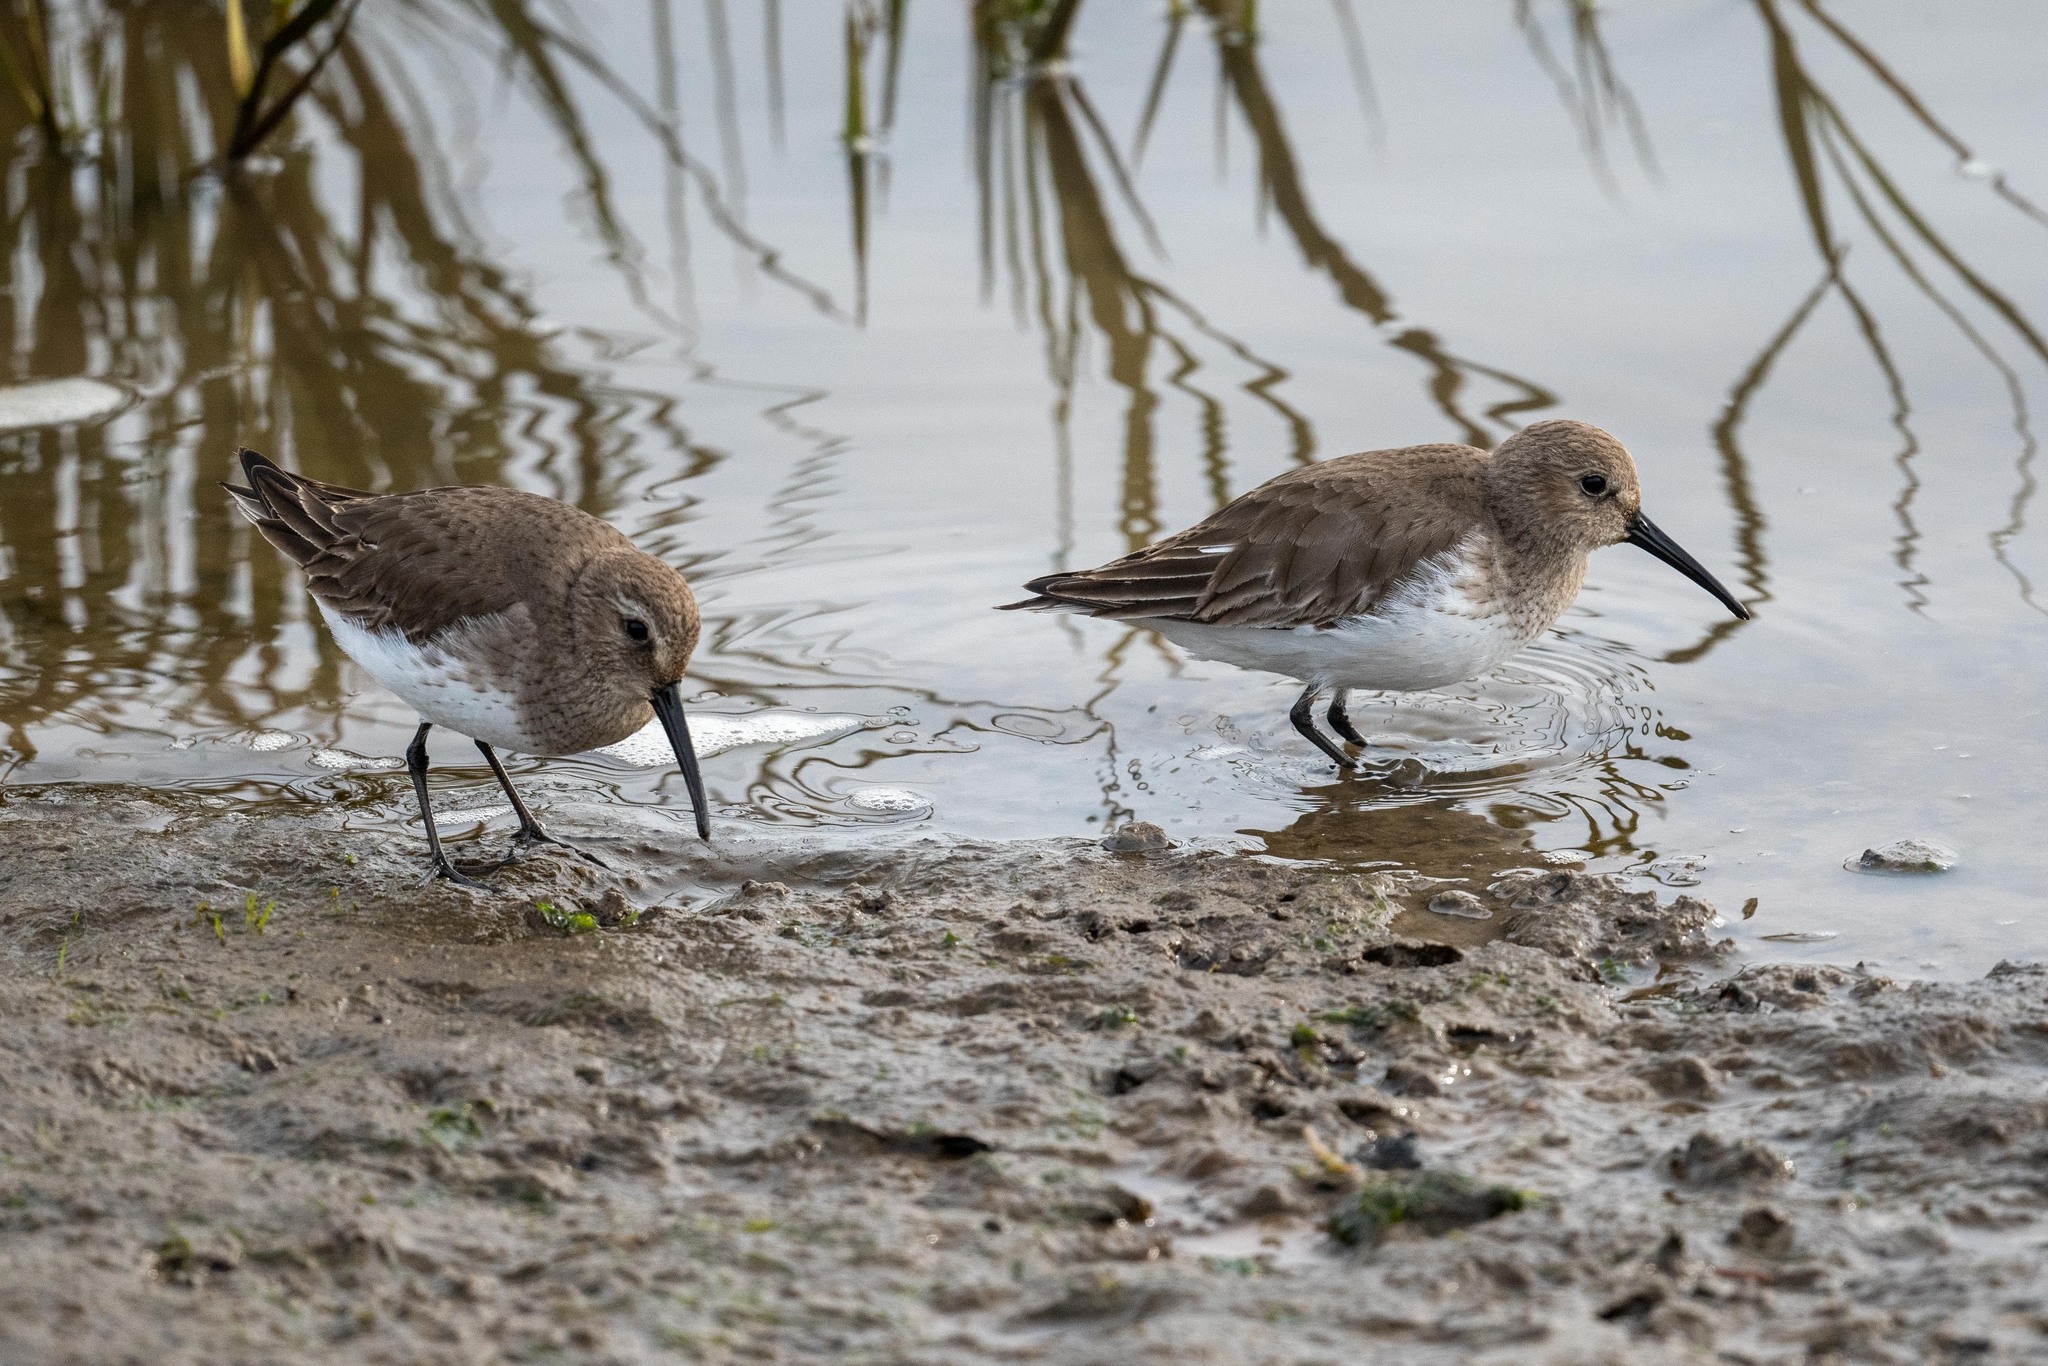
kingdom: Animalia
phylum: Chordata
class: Aves
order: Charadriiformes
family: Scolopacidae
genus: Calidris
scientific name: Calidris alpina
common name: Dunlin
